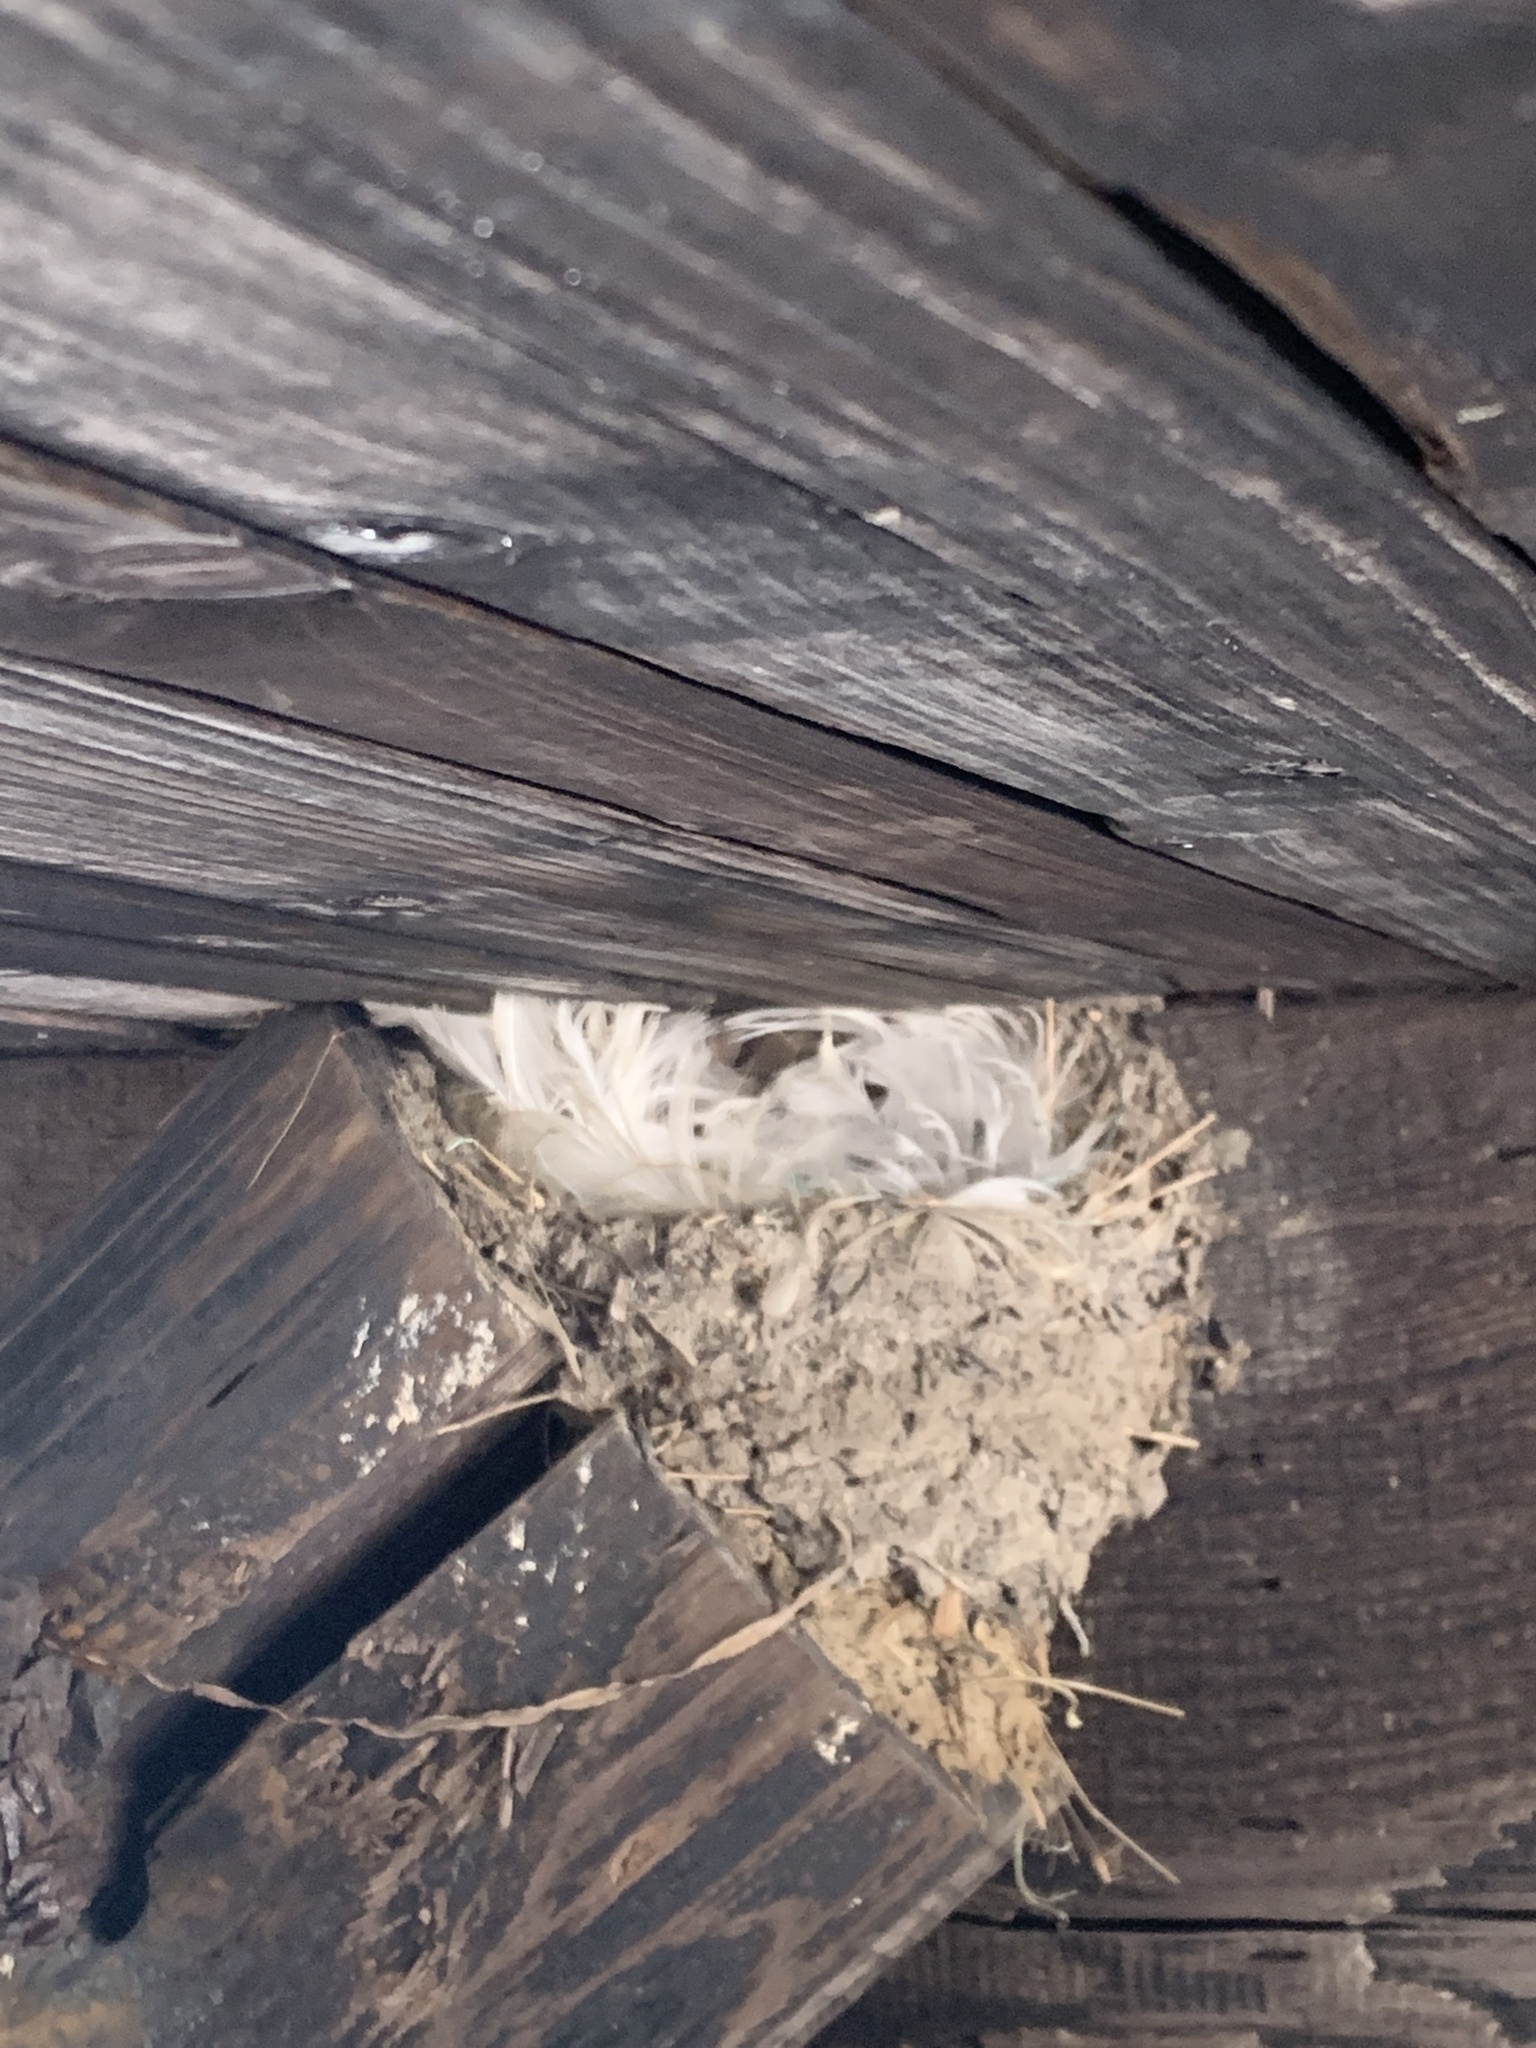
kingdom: Animalia
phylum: Chordata
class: Aves
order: Passeriformes
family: Hirundinidae
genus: Hirundo
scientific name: Hirundo rustica
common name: Barn swallow
